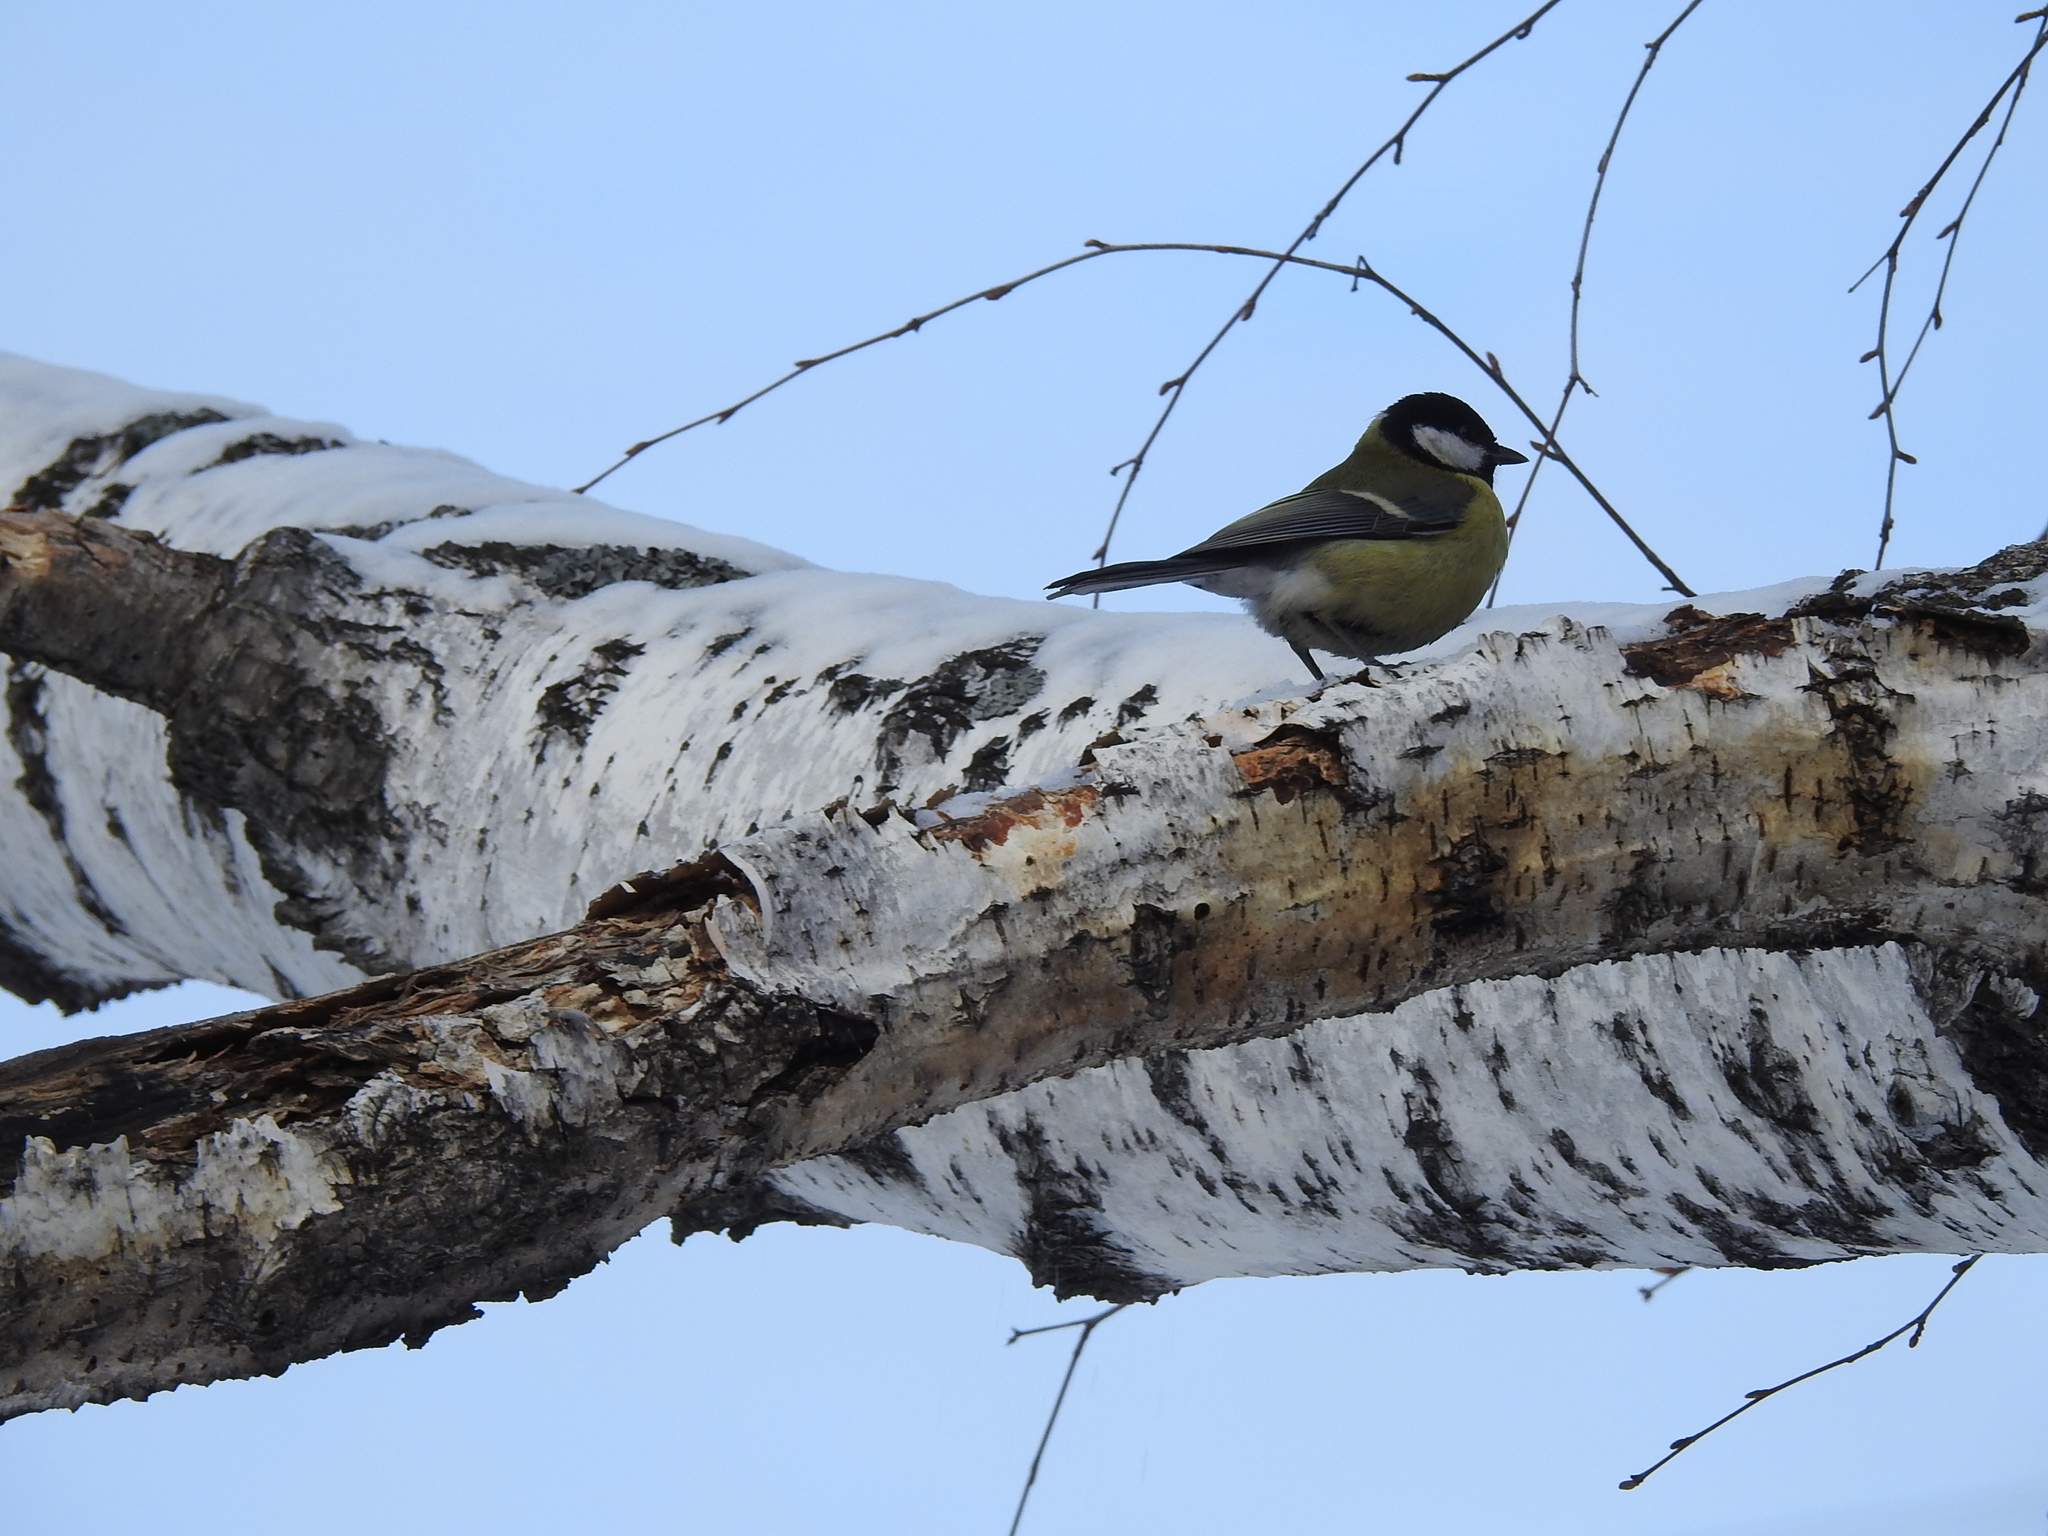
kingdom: Animalia
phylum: Chordata
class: Aves
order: Passeriformes
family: Paridae
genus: Parus
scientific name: Parus major
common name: Great tit
